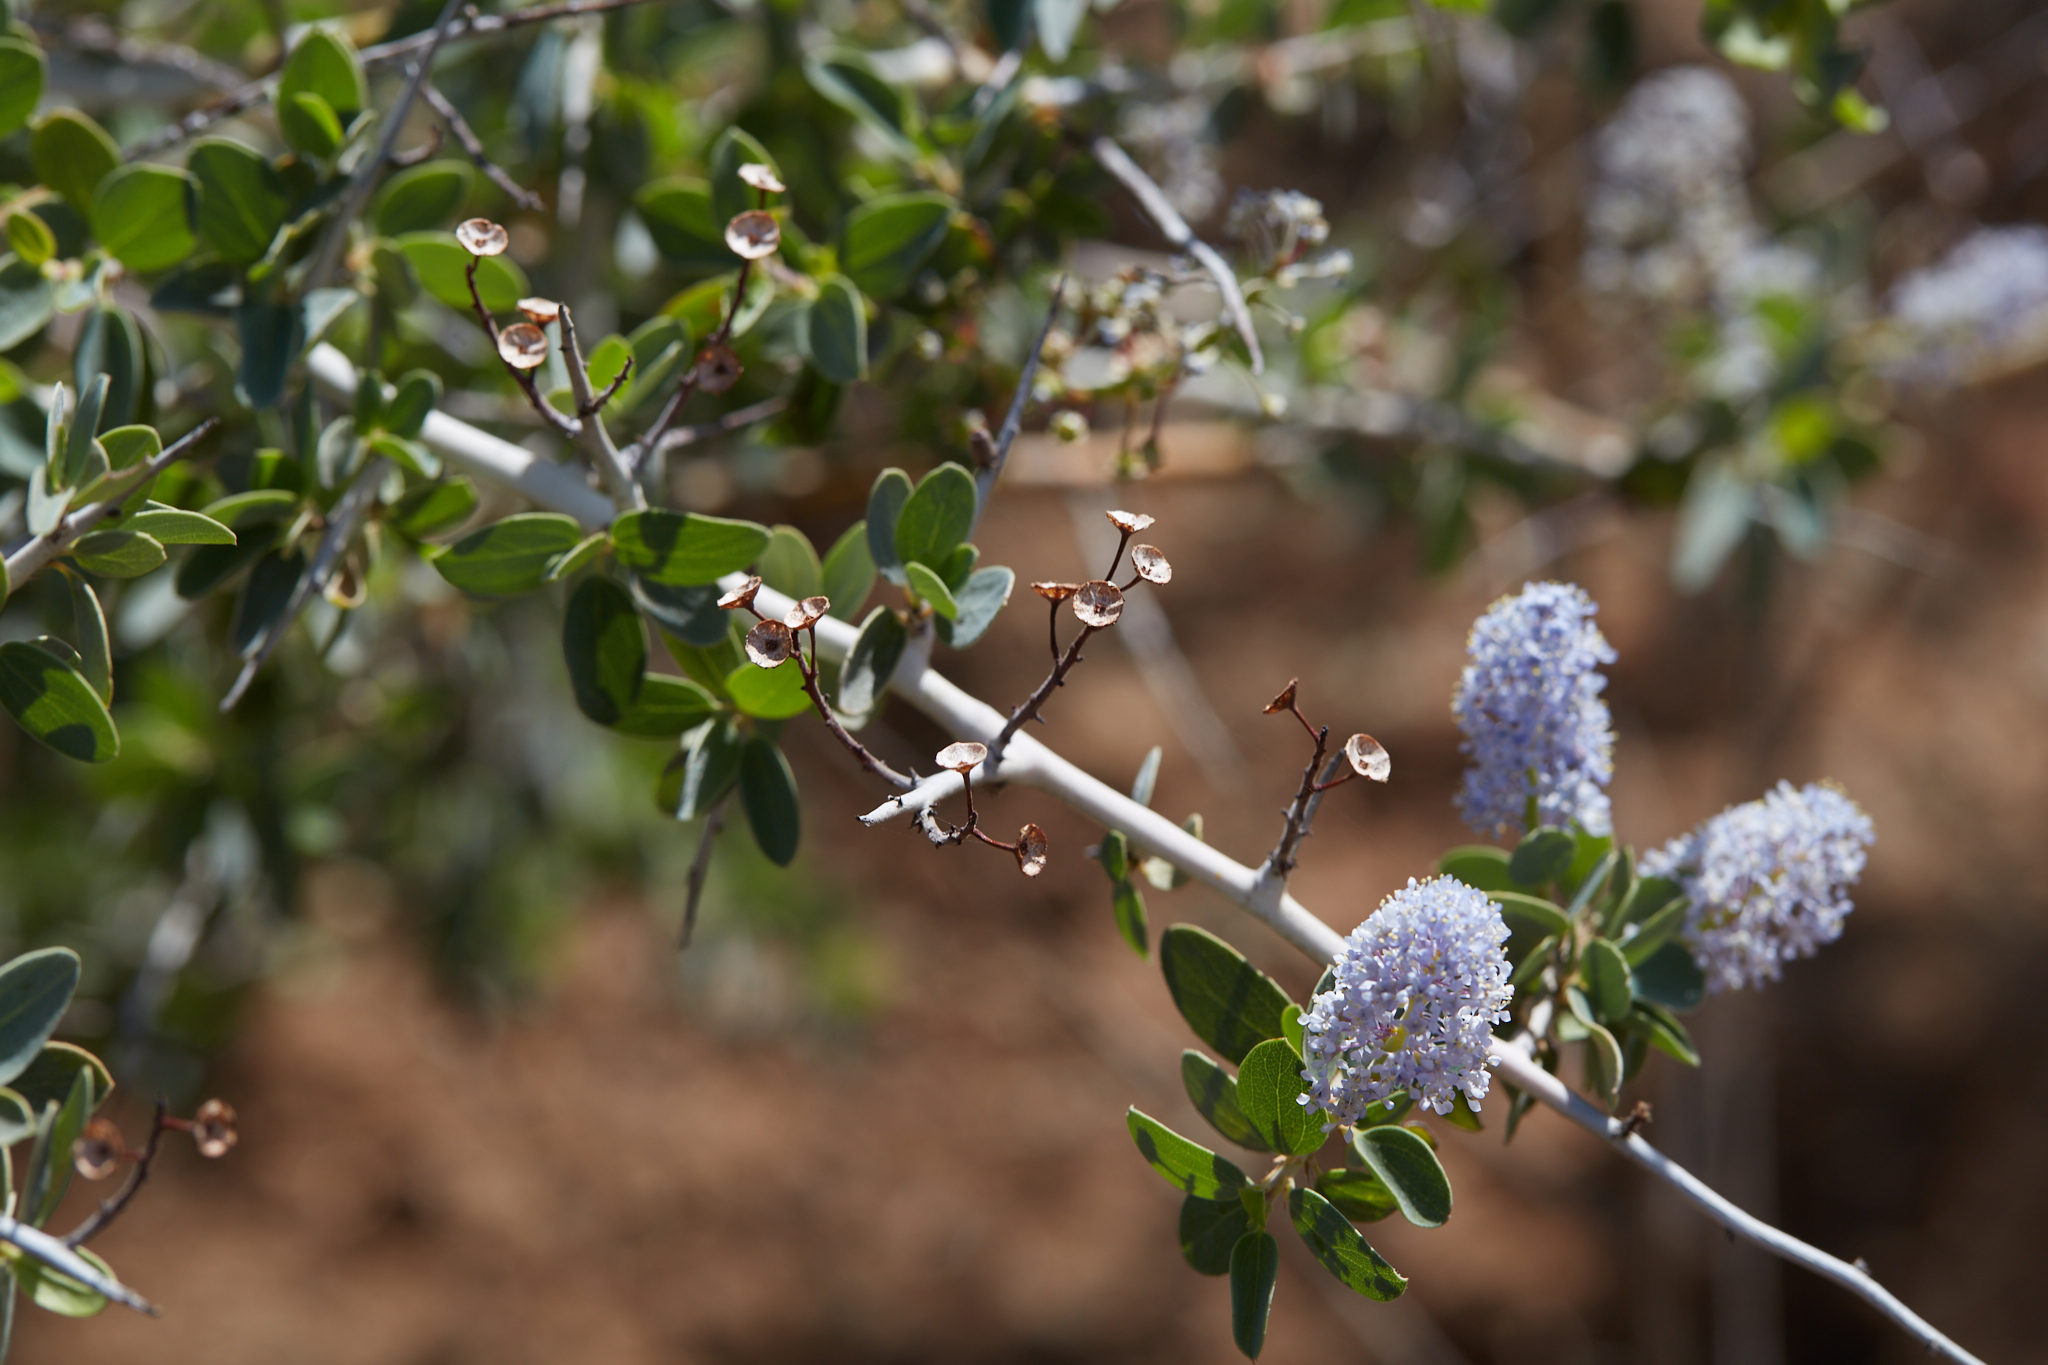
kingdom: Plantae
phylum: Tracheophyta
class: Magnoliopsida
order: Rosales
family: Rhamnaceae
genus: Ceanothus
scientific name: Ceanothus leucodermis
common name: Chaparral whitethorn
